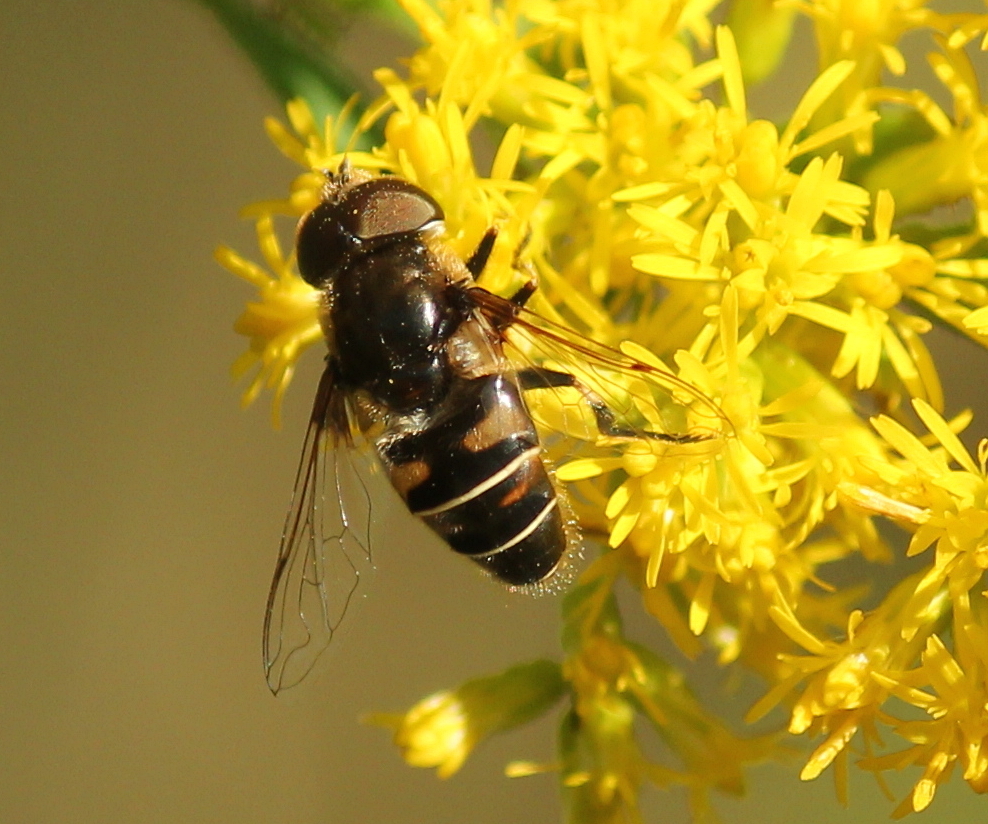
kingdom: Animalia
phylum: Arthropoda
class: Insecta
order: Diptera
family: Syrphidae
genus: Eristalis
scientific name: Eristalis dimidiata
